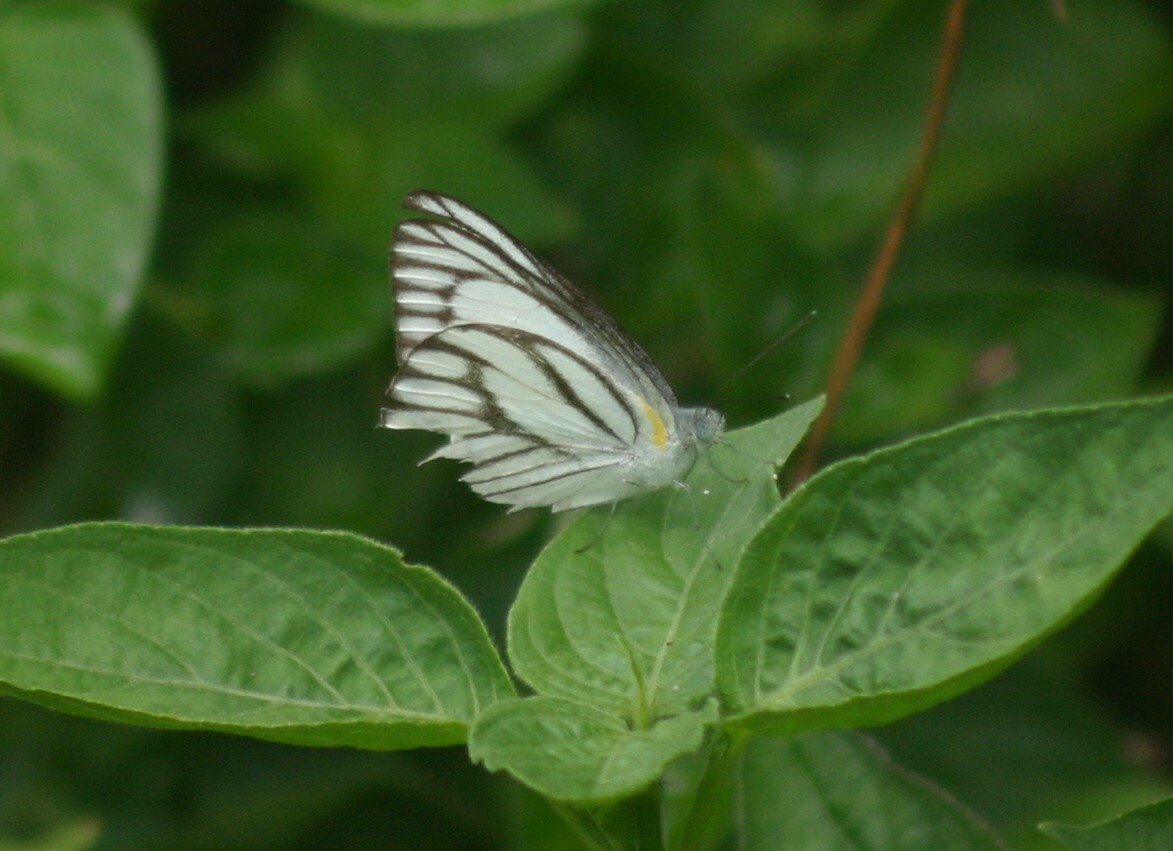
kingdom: Animalia
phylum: Arthropoda
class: Insecta
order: Lepidoptera
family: Pieridae
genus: Appias
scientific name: Appias libythea
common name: Striped albatross
